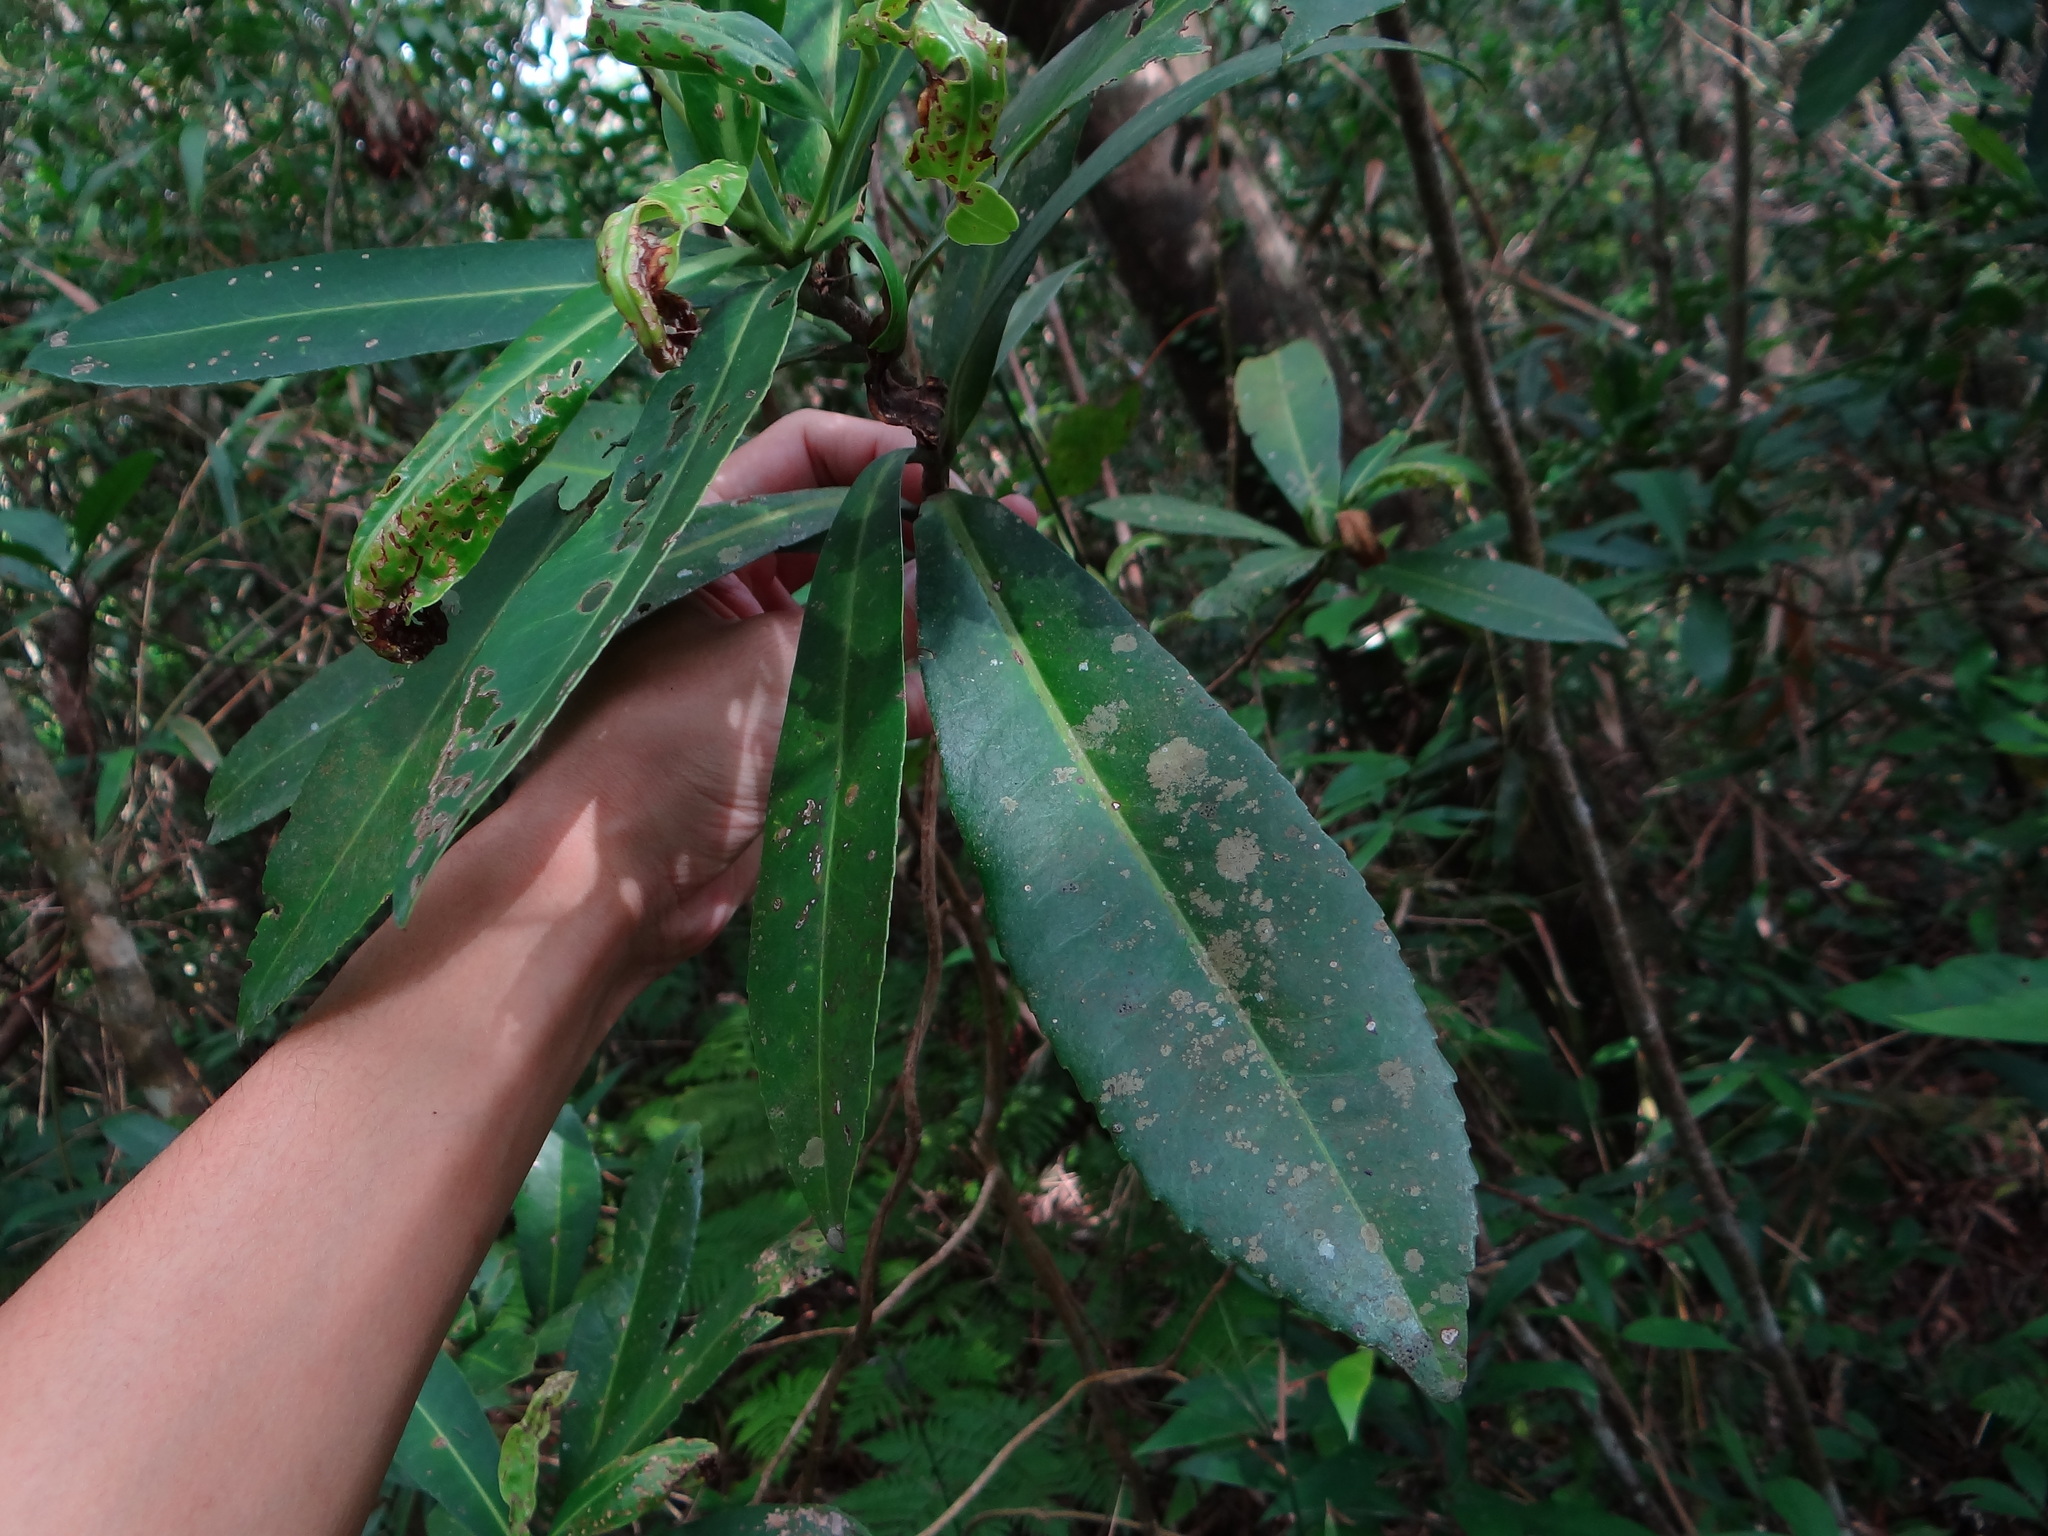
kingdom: Plantae
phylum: Tracheophyta
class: Magnoliopsida
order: Ericales
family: Theaceae
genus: Polyspora
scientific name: Polyspora axillaris
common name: Fried egg tree
